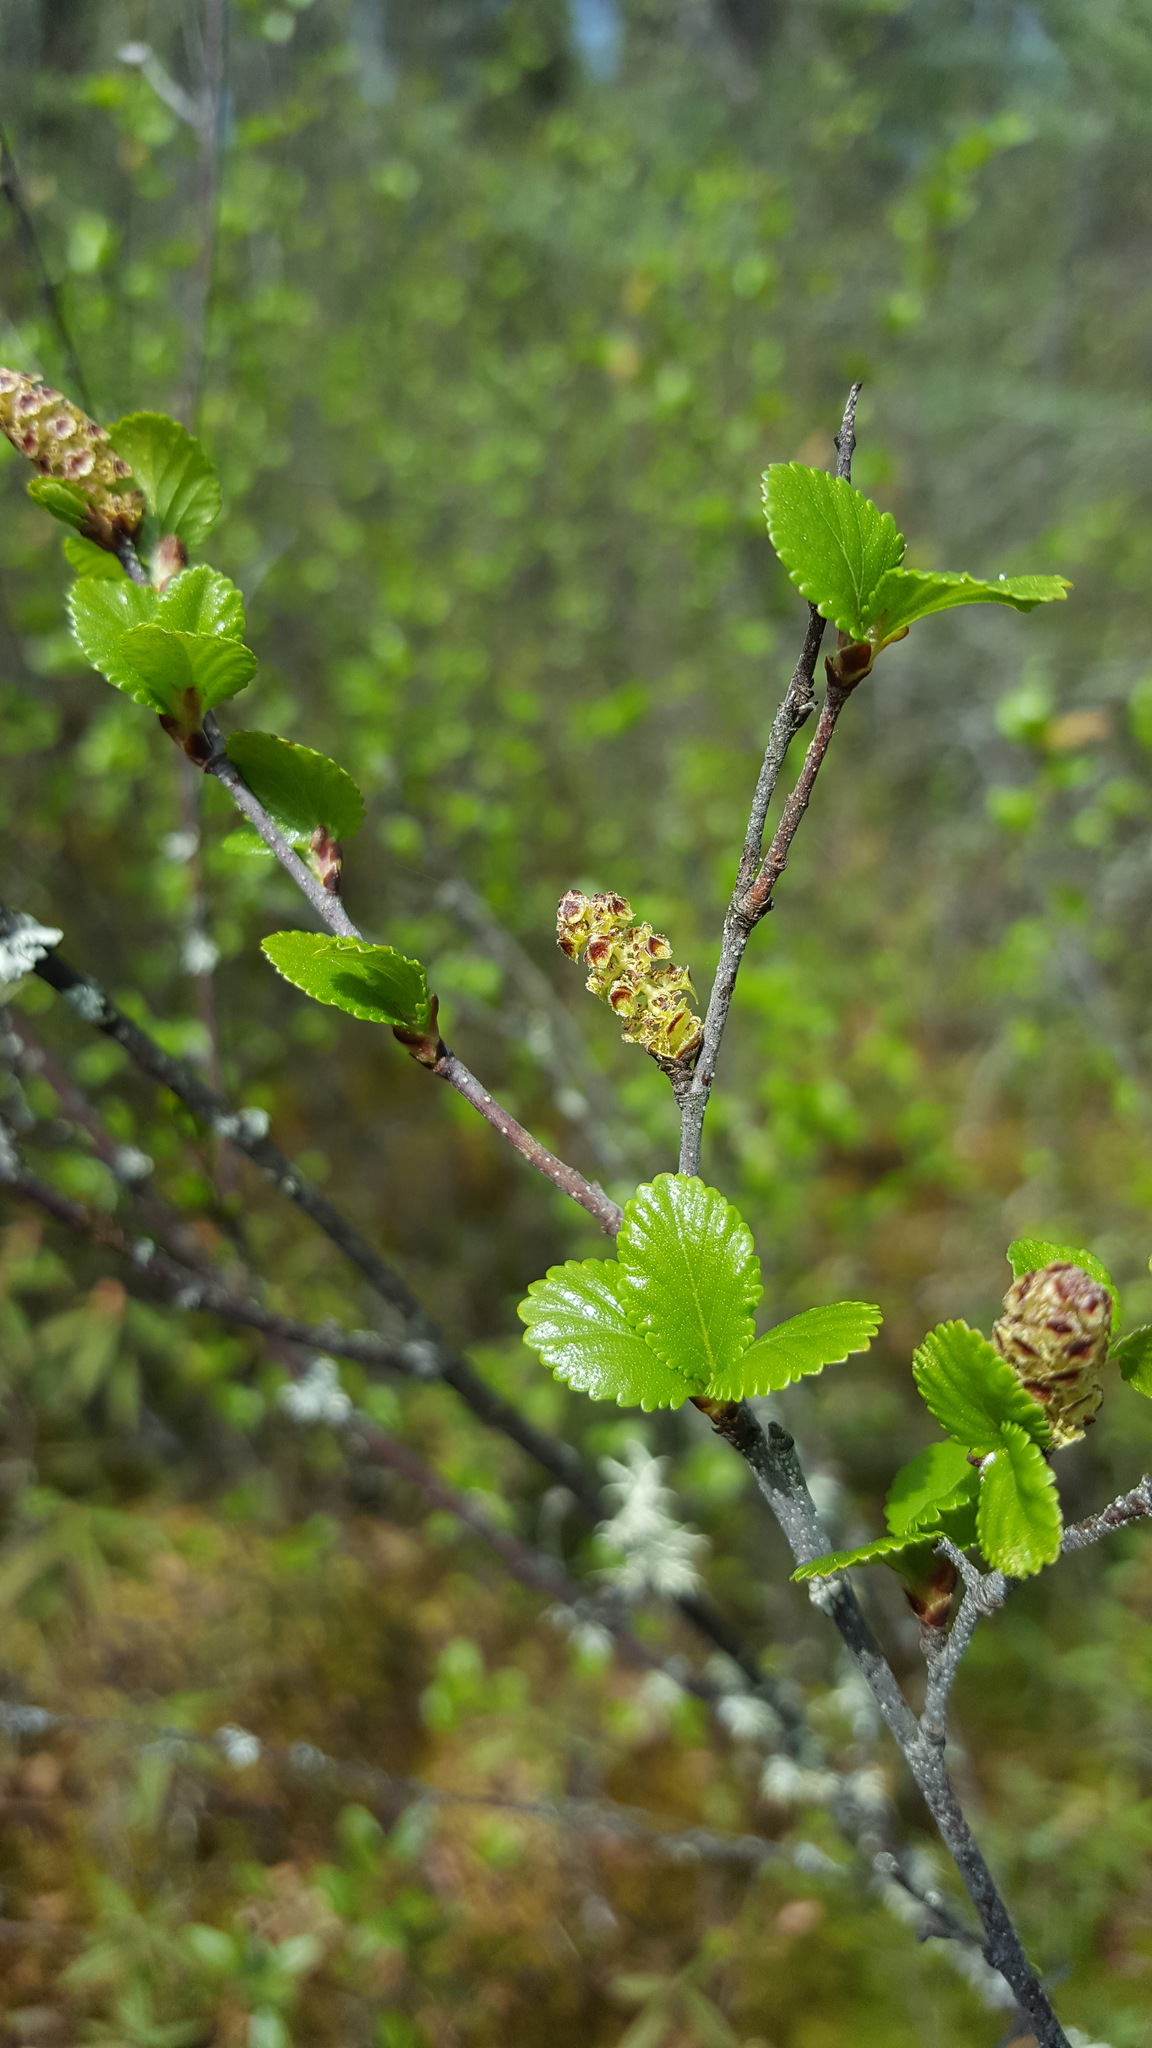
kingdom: Plantae
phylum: Tracheophyta
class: Magnoliopsida
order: Fagales
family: Betulaceae
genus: Betula
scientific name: Betula pumila
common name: Bog birch
